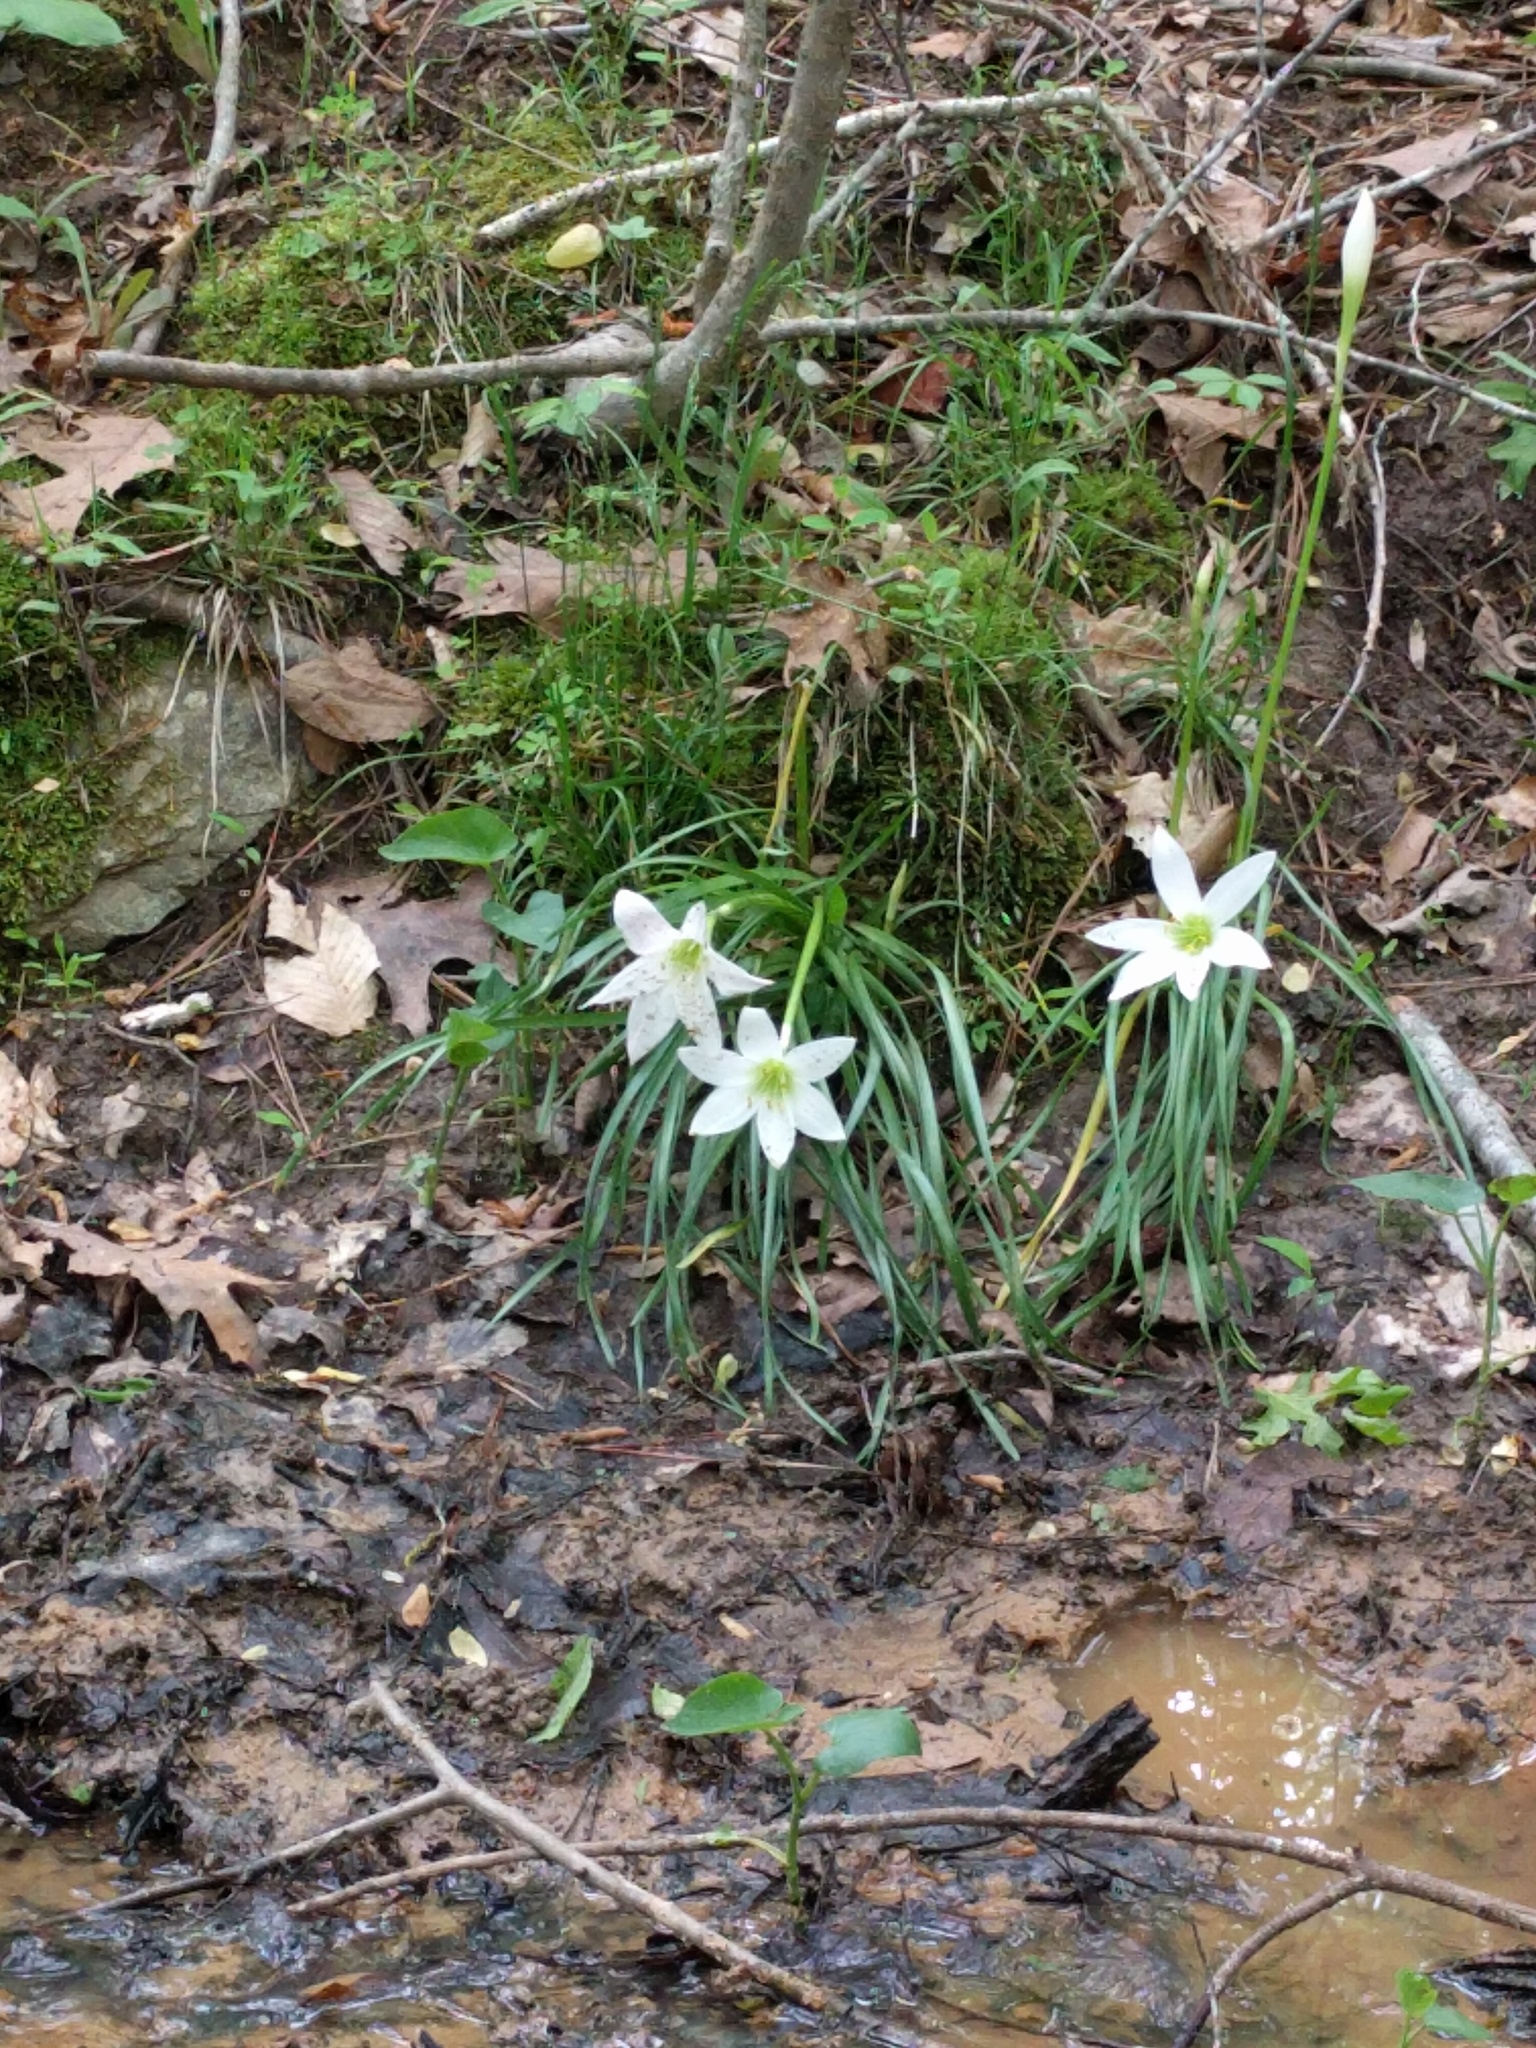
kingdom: Plantae
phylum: Tracheophyta
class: Liliopsida
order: Asparagales
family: Amaryllidaceae
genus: Zephyranthes
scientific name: Zephyranthes atamasco
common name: Atamasco lily
